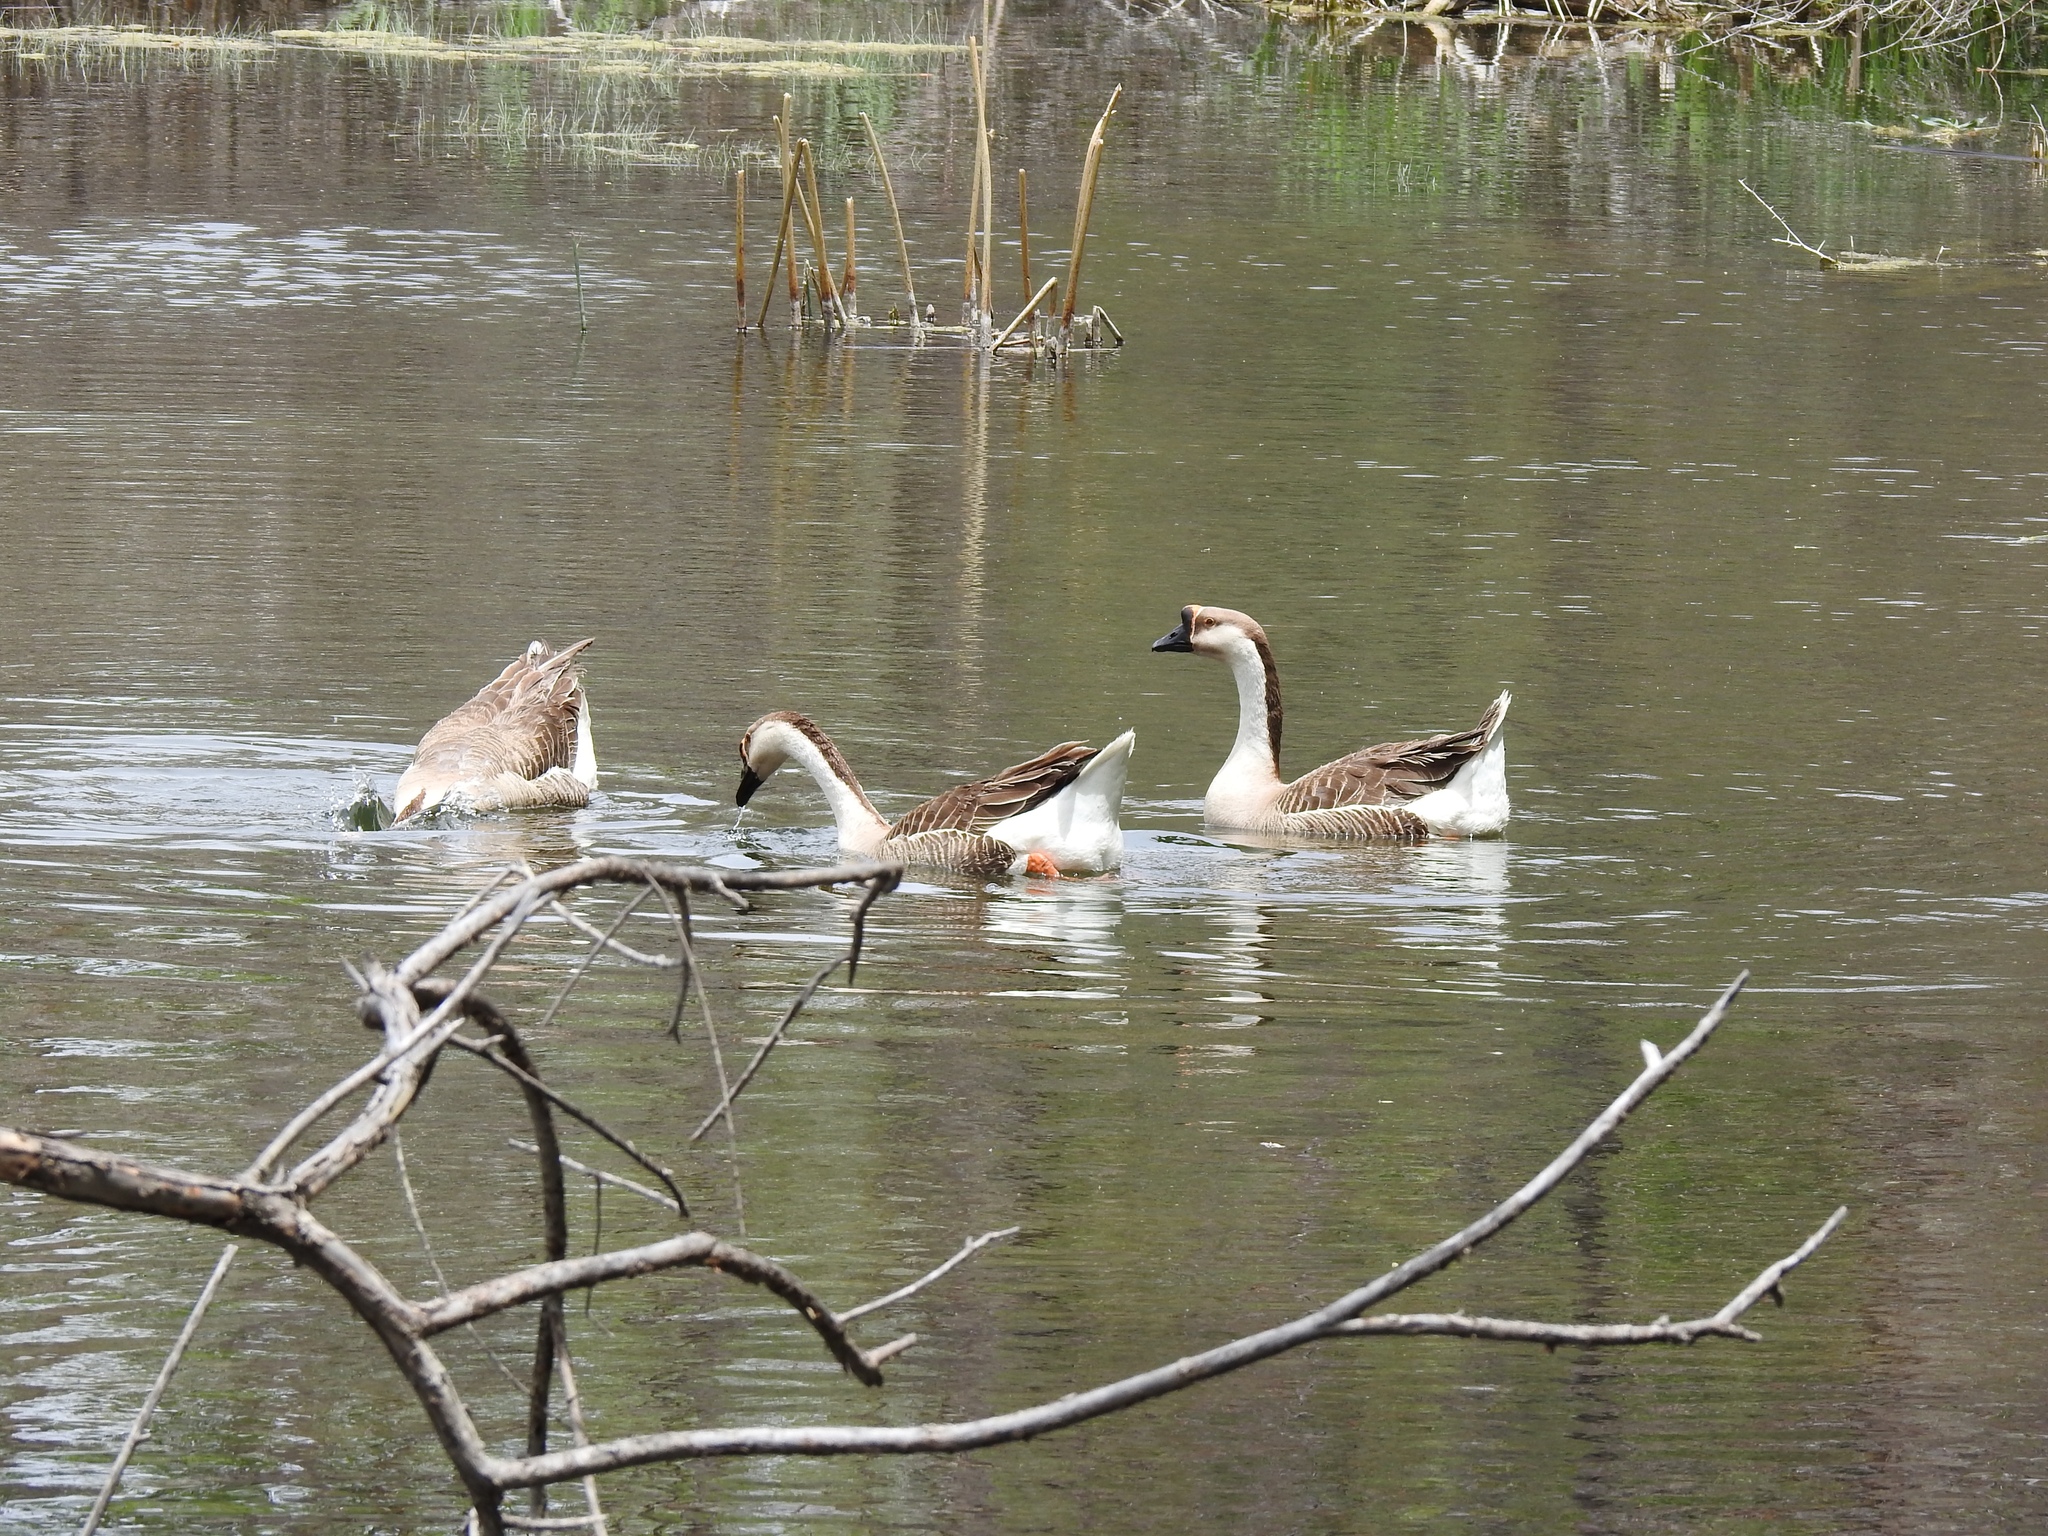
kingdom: Animalia
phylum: Chordata
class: Aves
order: Anseriformes
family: Anatidae
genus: Anser
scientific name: Anser cygnoides
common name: Swan goose
